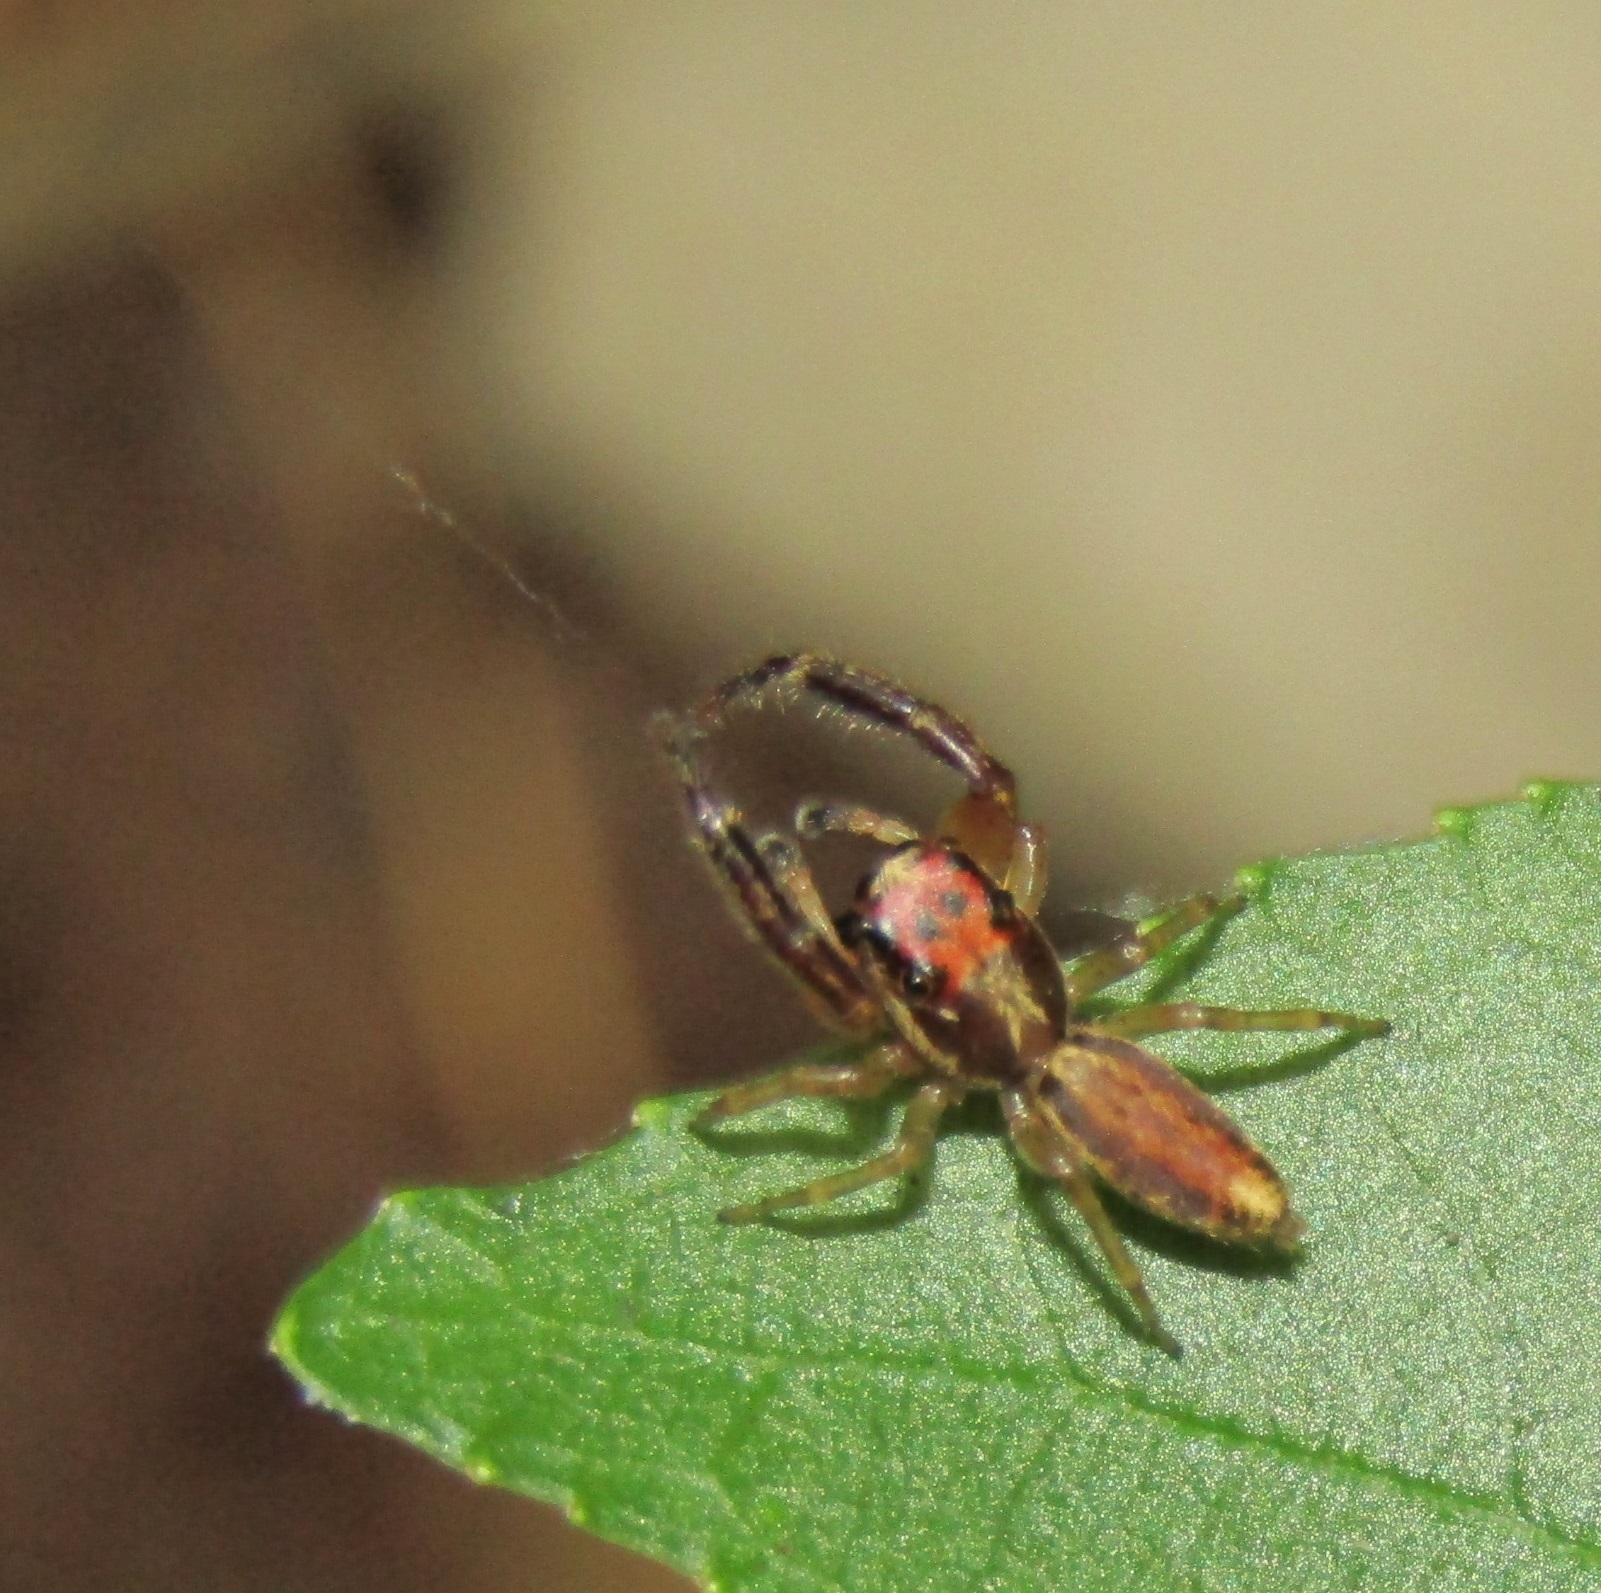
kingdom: Animalia
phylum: Arthropoda
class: Arachnida
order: Araneae
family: Salticidae
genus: Trite
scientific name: Trite mustilina
